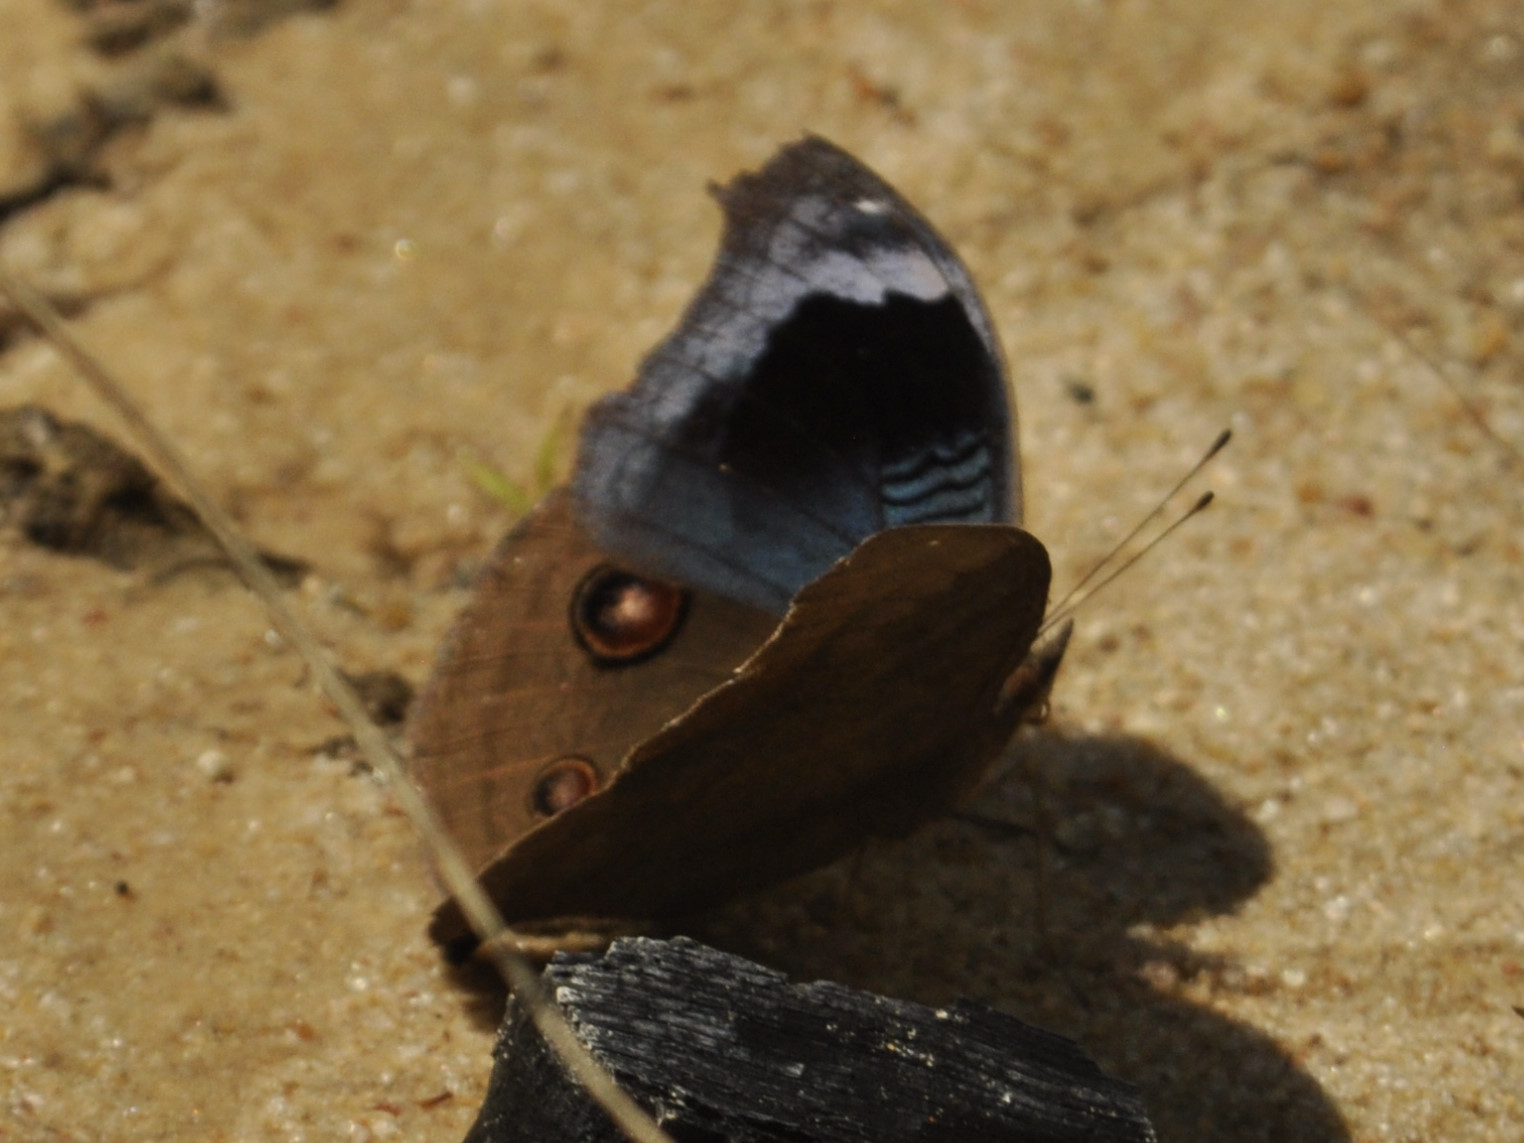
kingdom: Animalia
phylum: Arthropoda
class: Insecta
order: Lepidoptera
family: Nymphalidae
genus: Junonia
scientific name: Junonia artaxia
